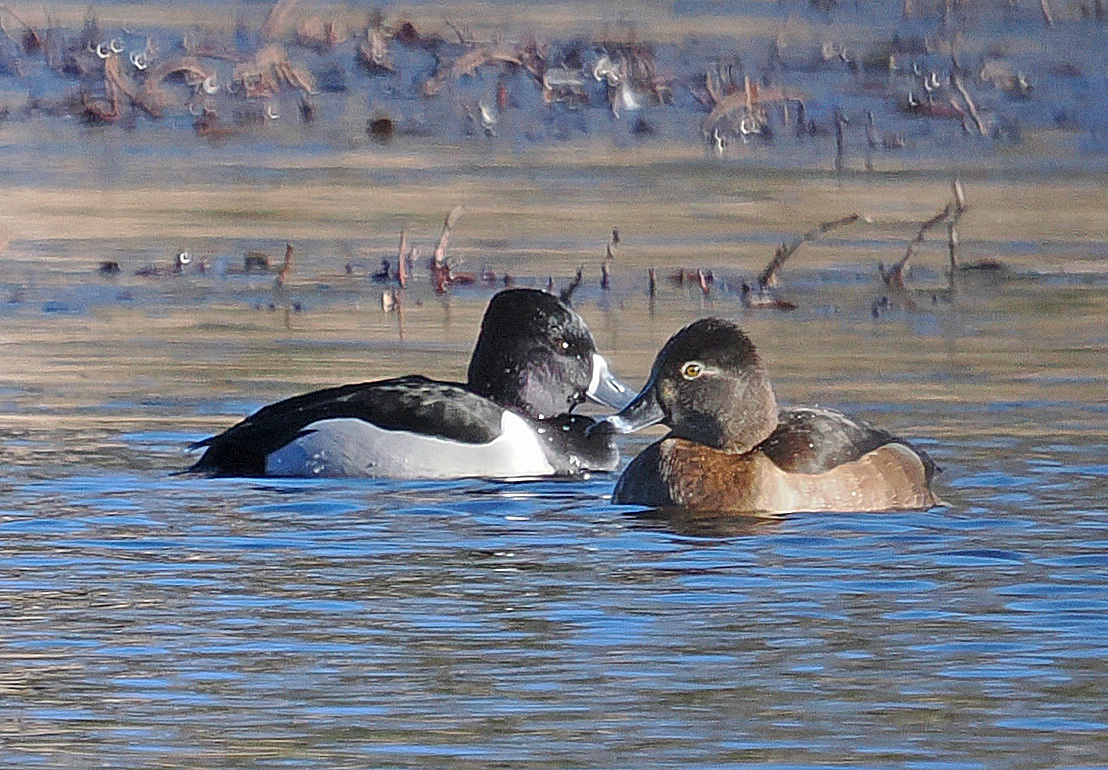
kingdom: Animalia
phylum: Chordata
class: Aves
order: Anseriformes
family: Anatidae
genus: Aythya
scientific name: Aythya collaris
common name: Ring-necked duck
